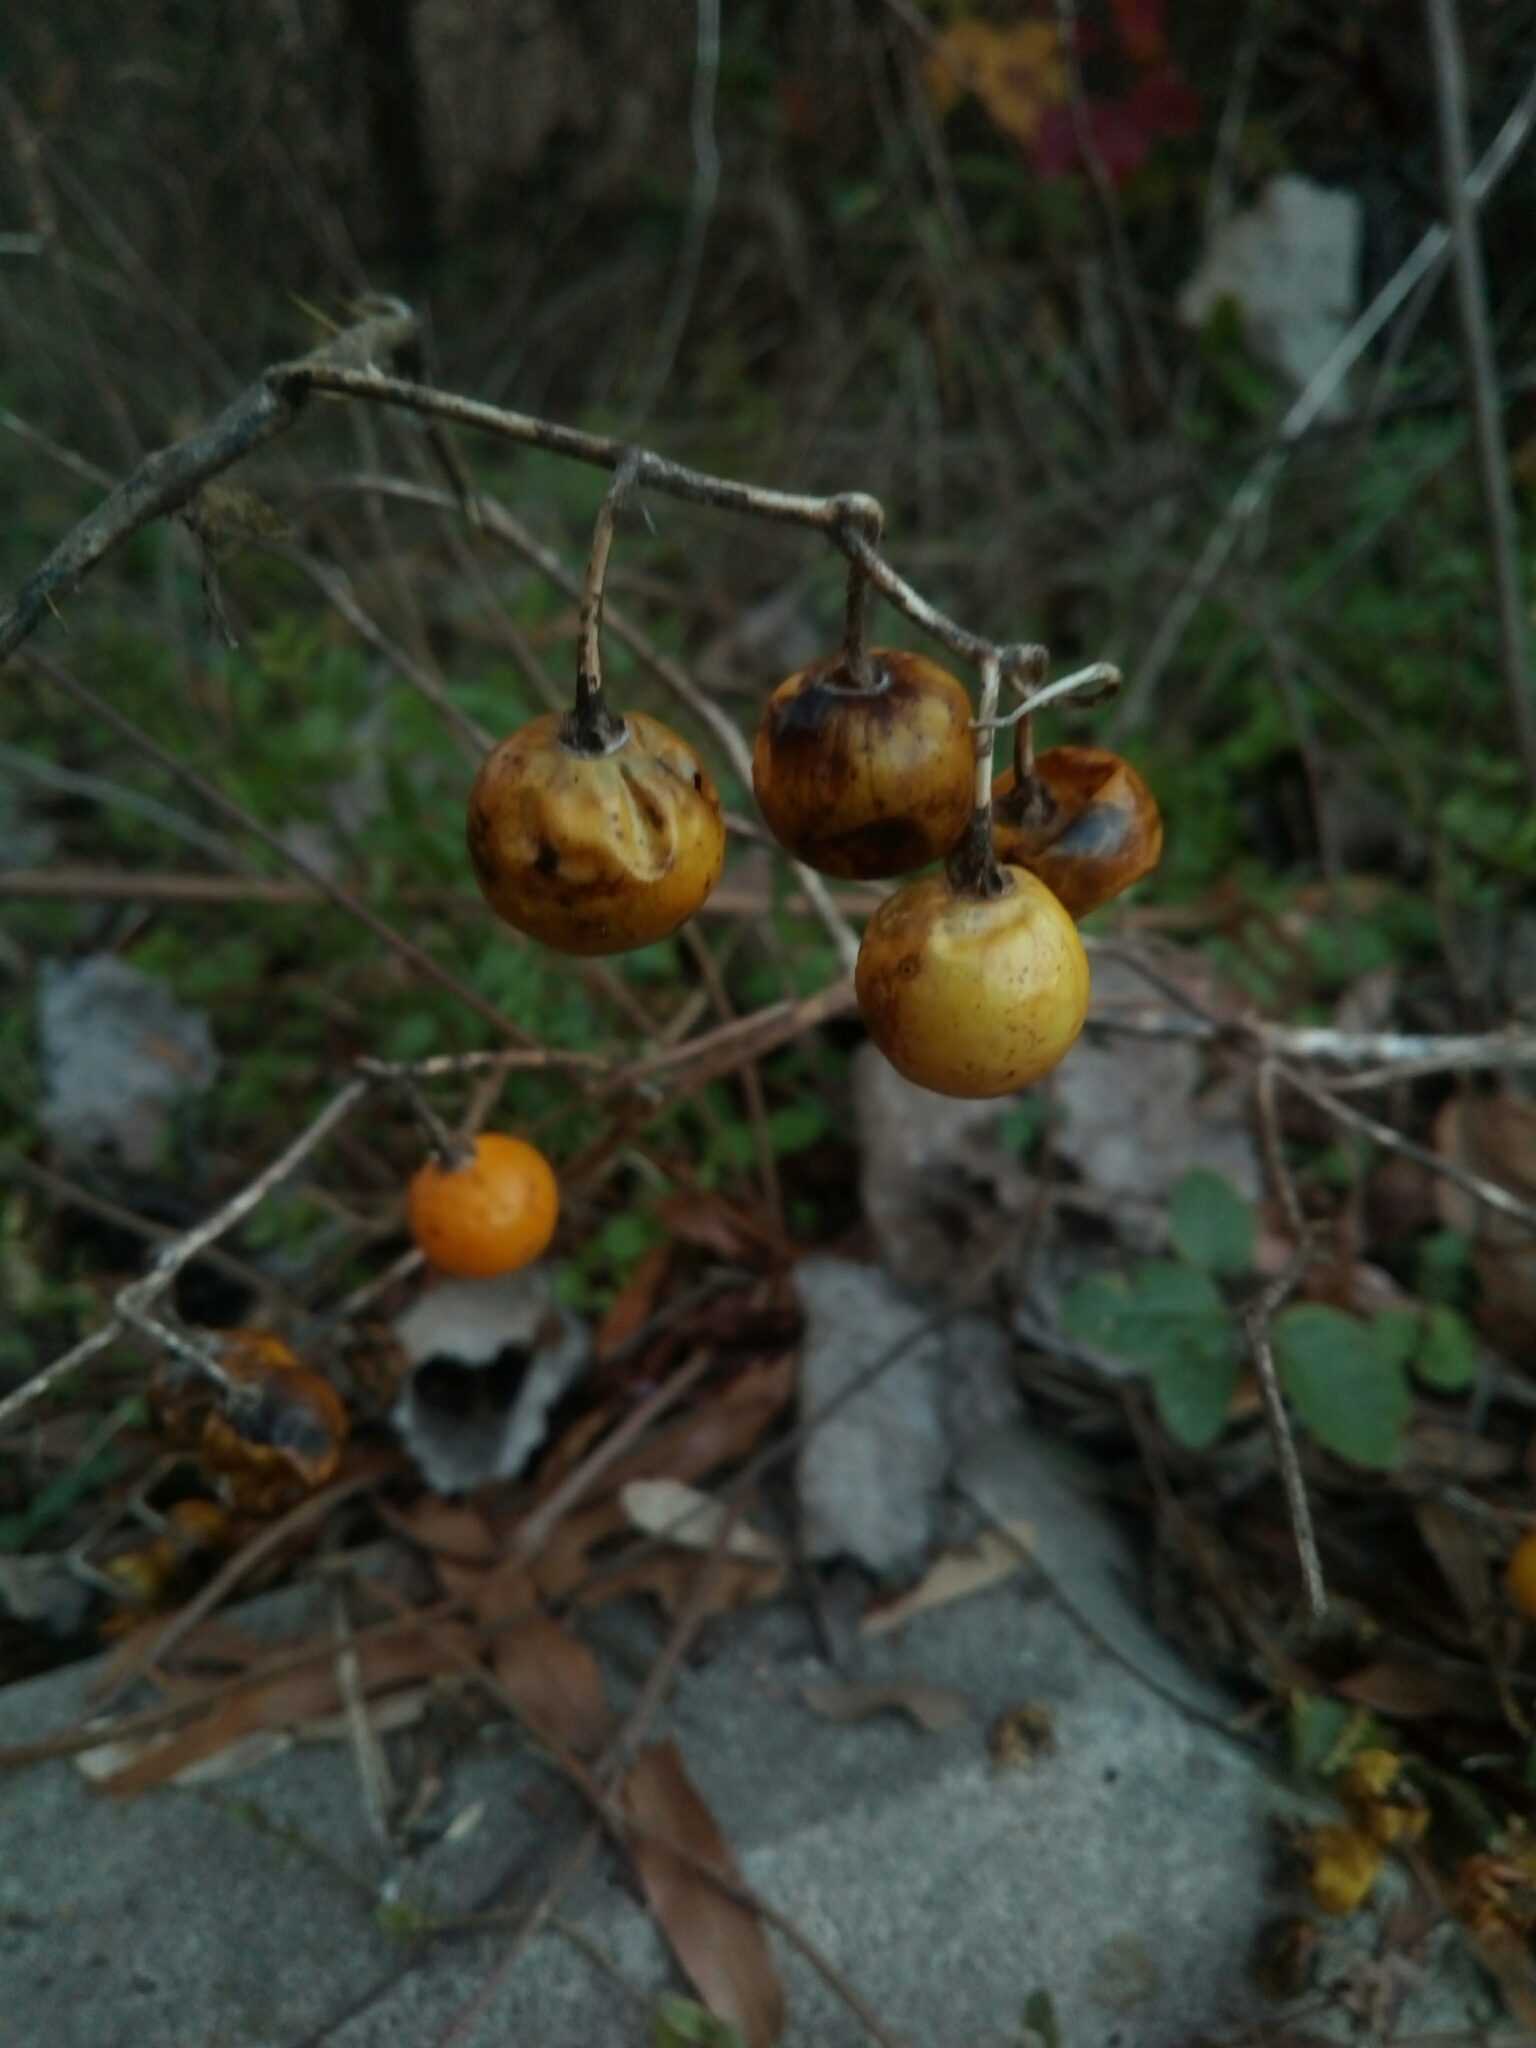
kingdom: Plantae
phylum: Tracheophyta
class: Magnoliopsida
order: Solanales
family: Solanaceae
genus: Solanum
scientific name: Solanum carolinense
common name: Horse-nettle
